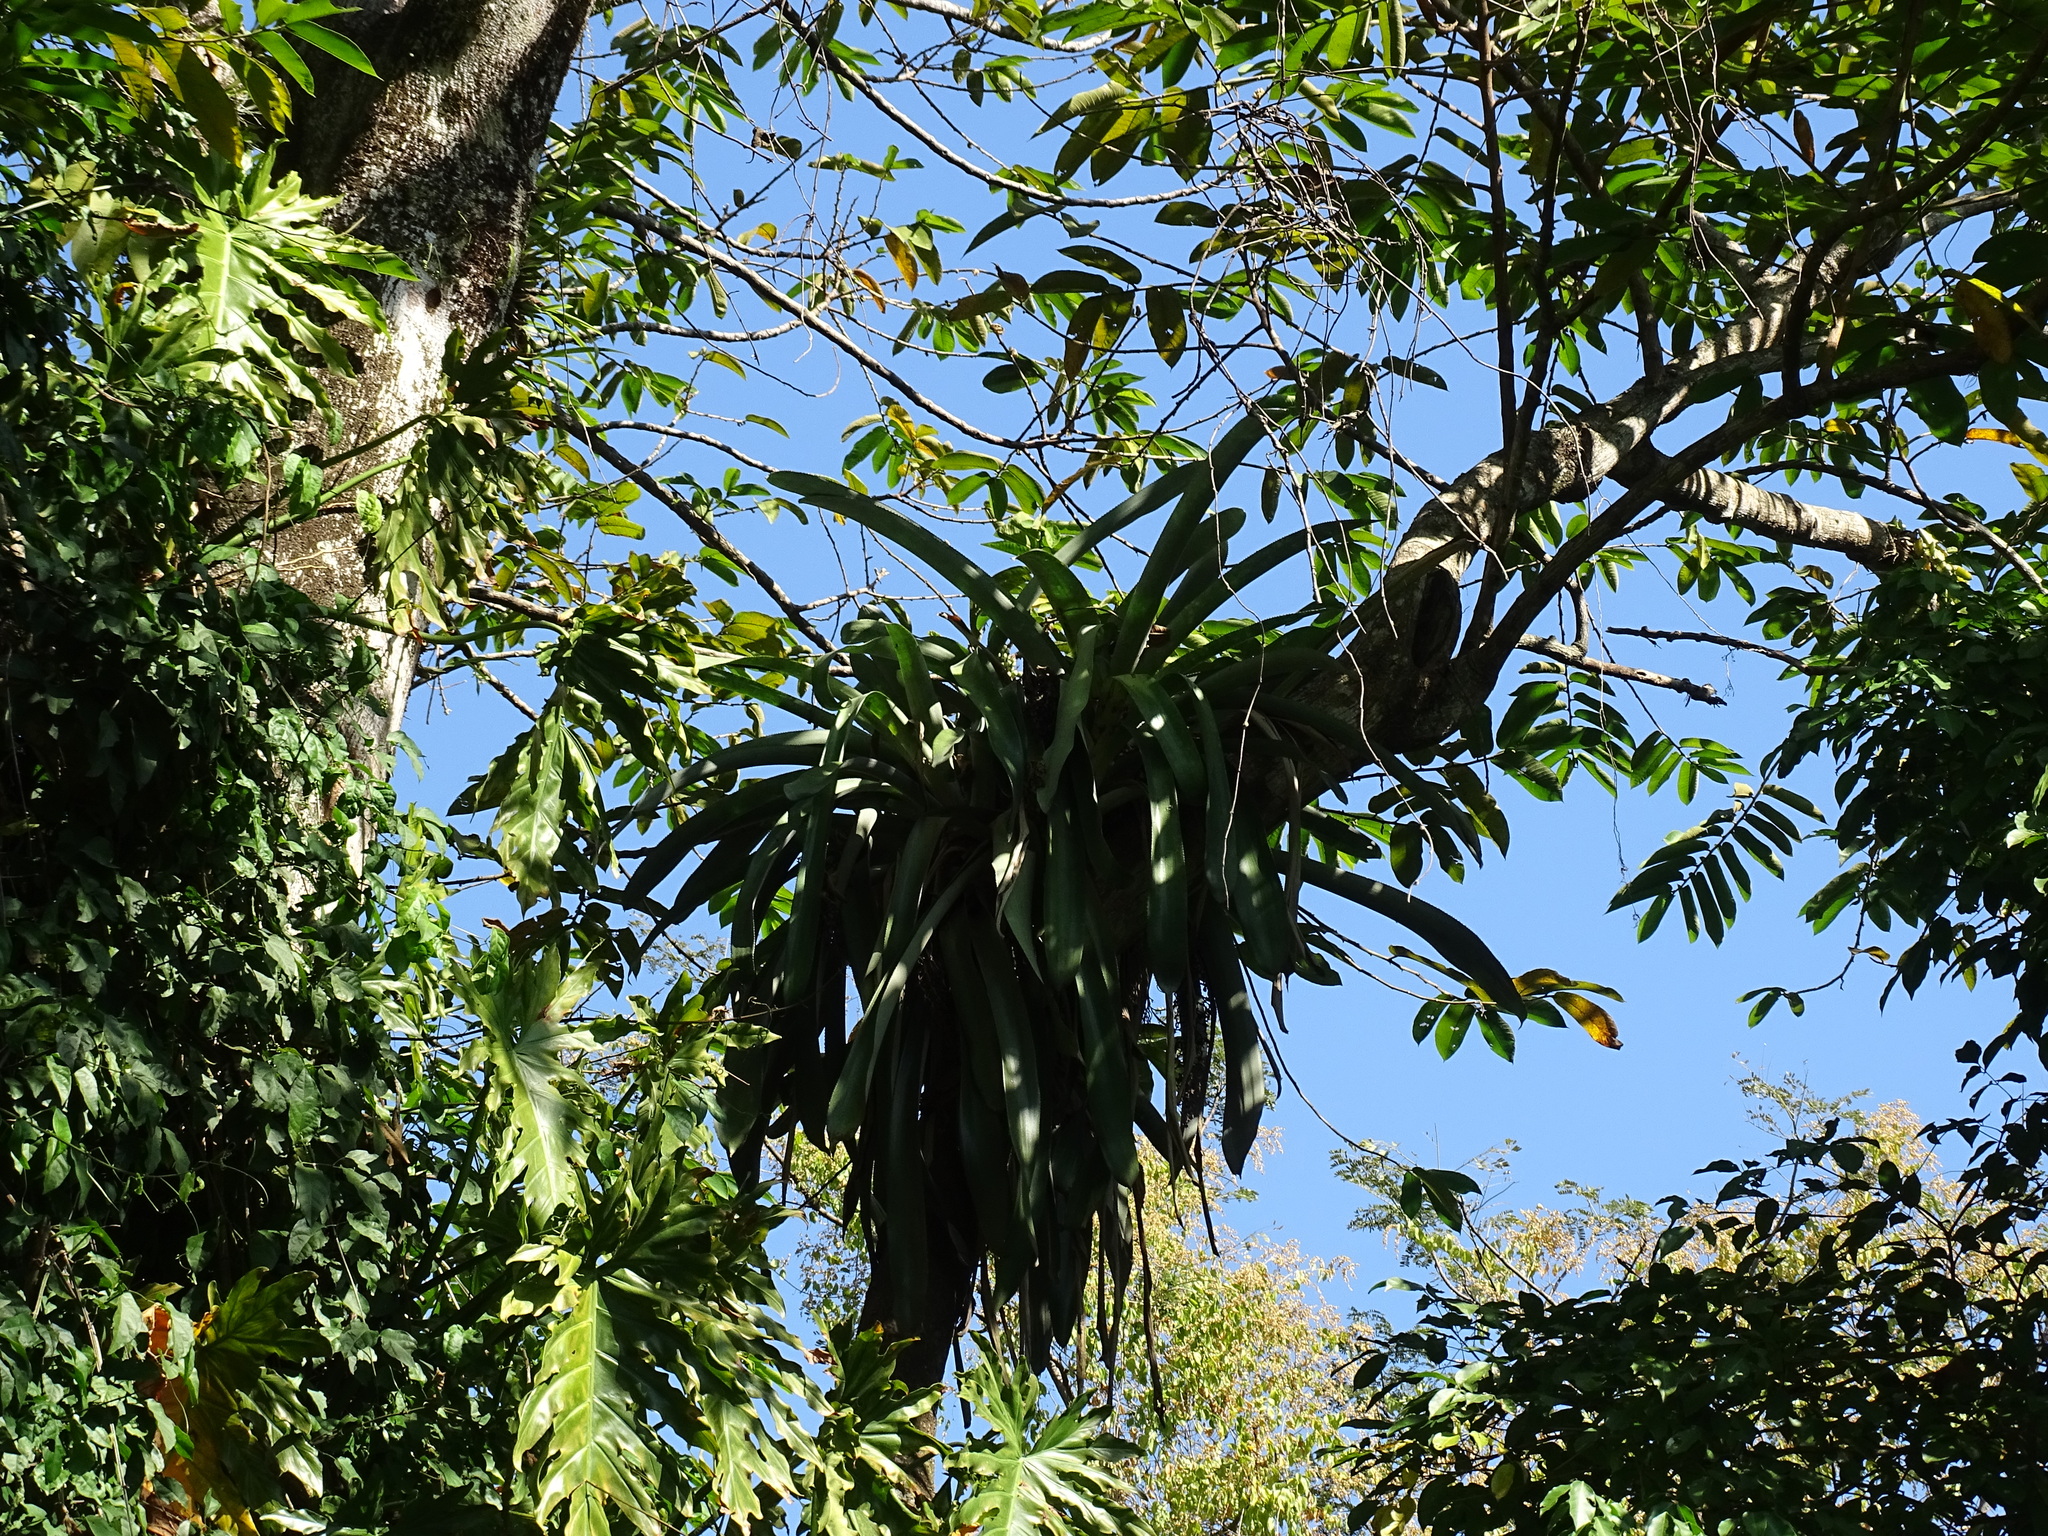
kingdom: Plantae
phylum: Tracheophyta
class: Liliopsida
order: Poales
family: Bromeliaceae
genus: Aechmea
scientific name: Aechmea matudae
